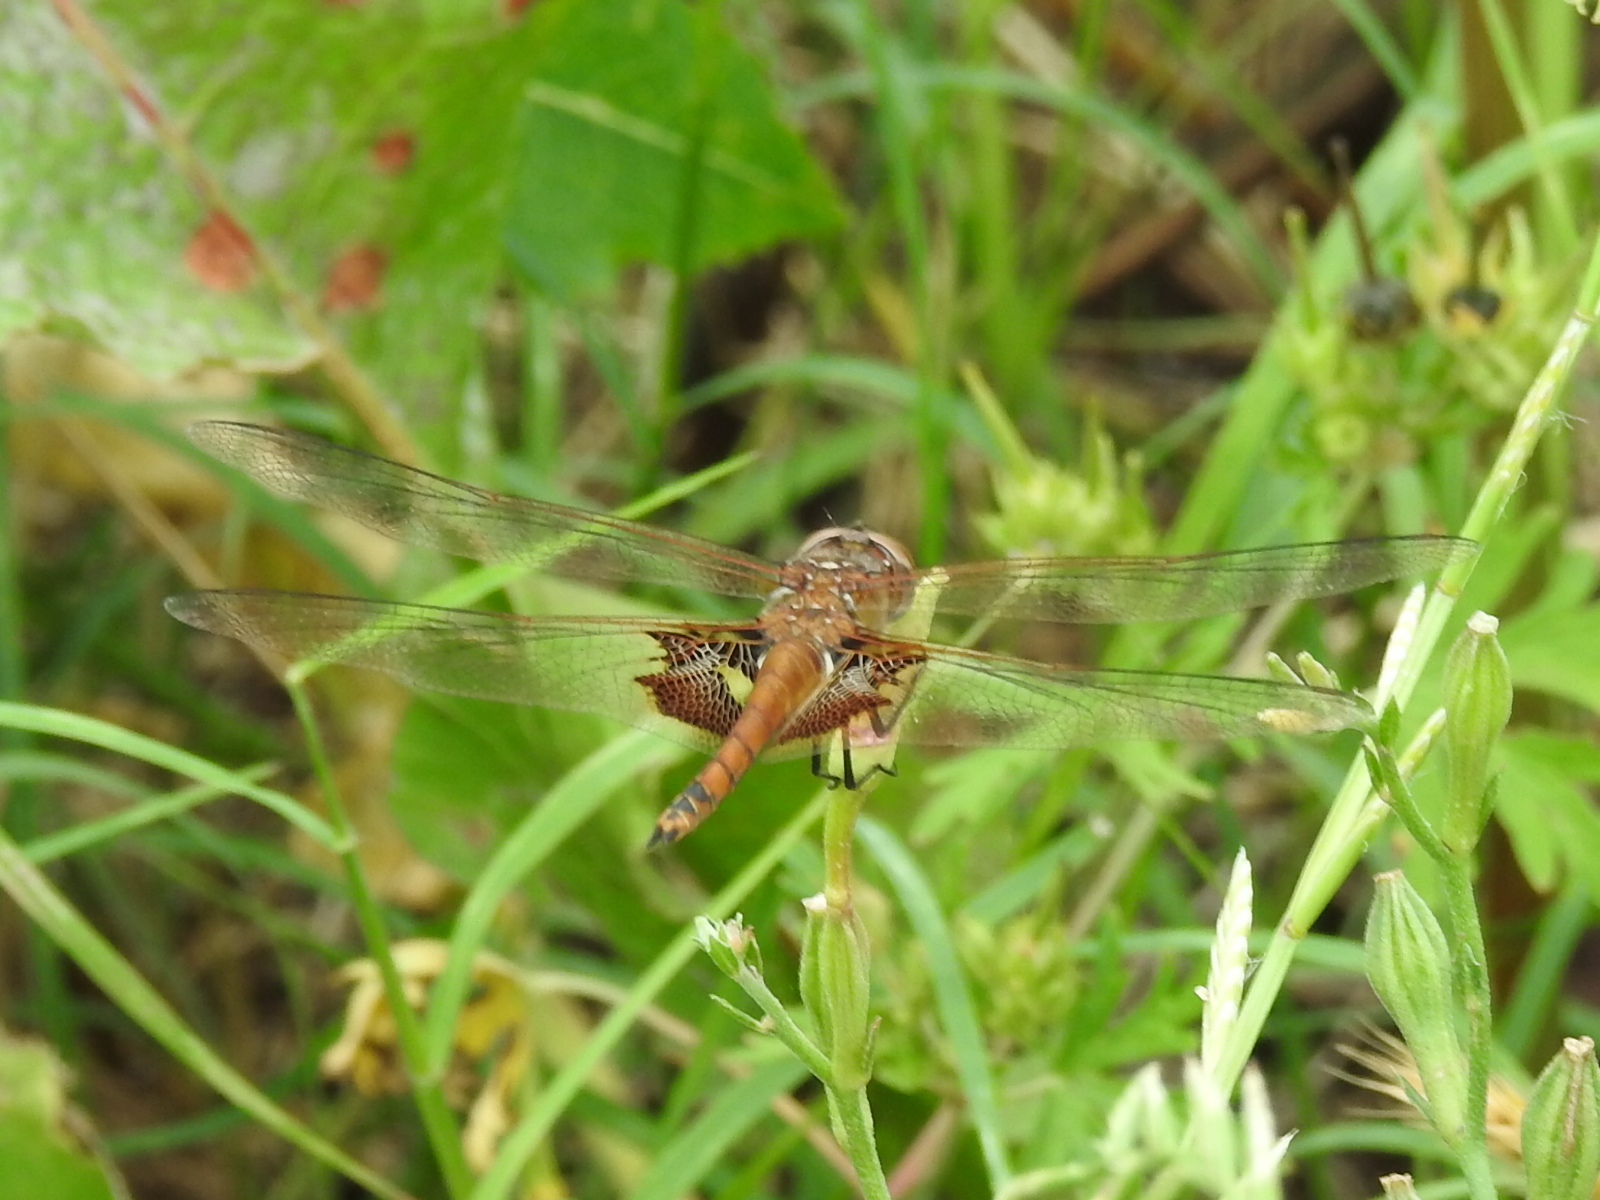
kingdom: Animalia
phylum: Arthropoda
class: Insecta
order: Odonata
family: Libellulidae
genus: Tramea
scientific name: Tramea onusta
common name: Red saddlebags
